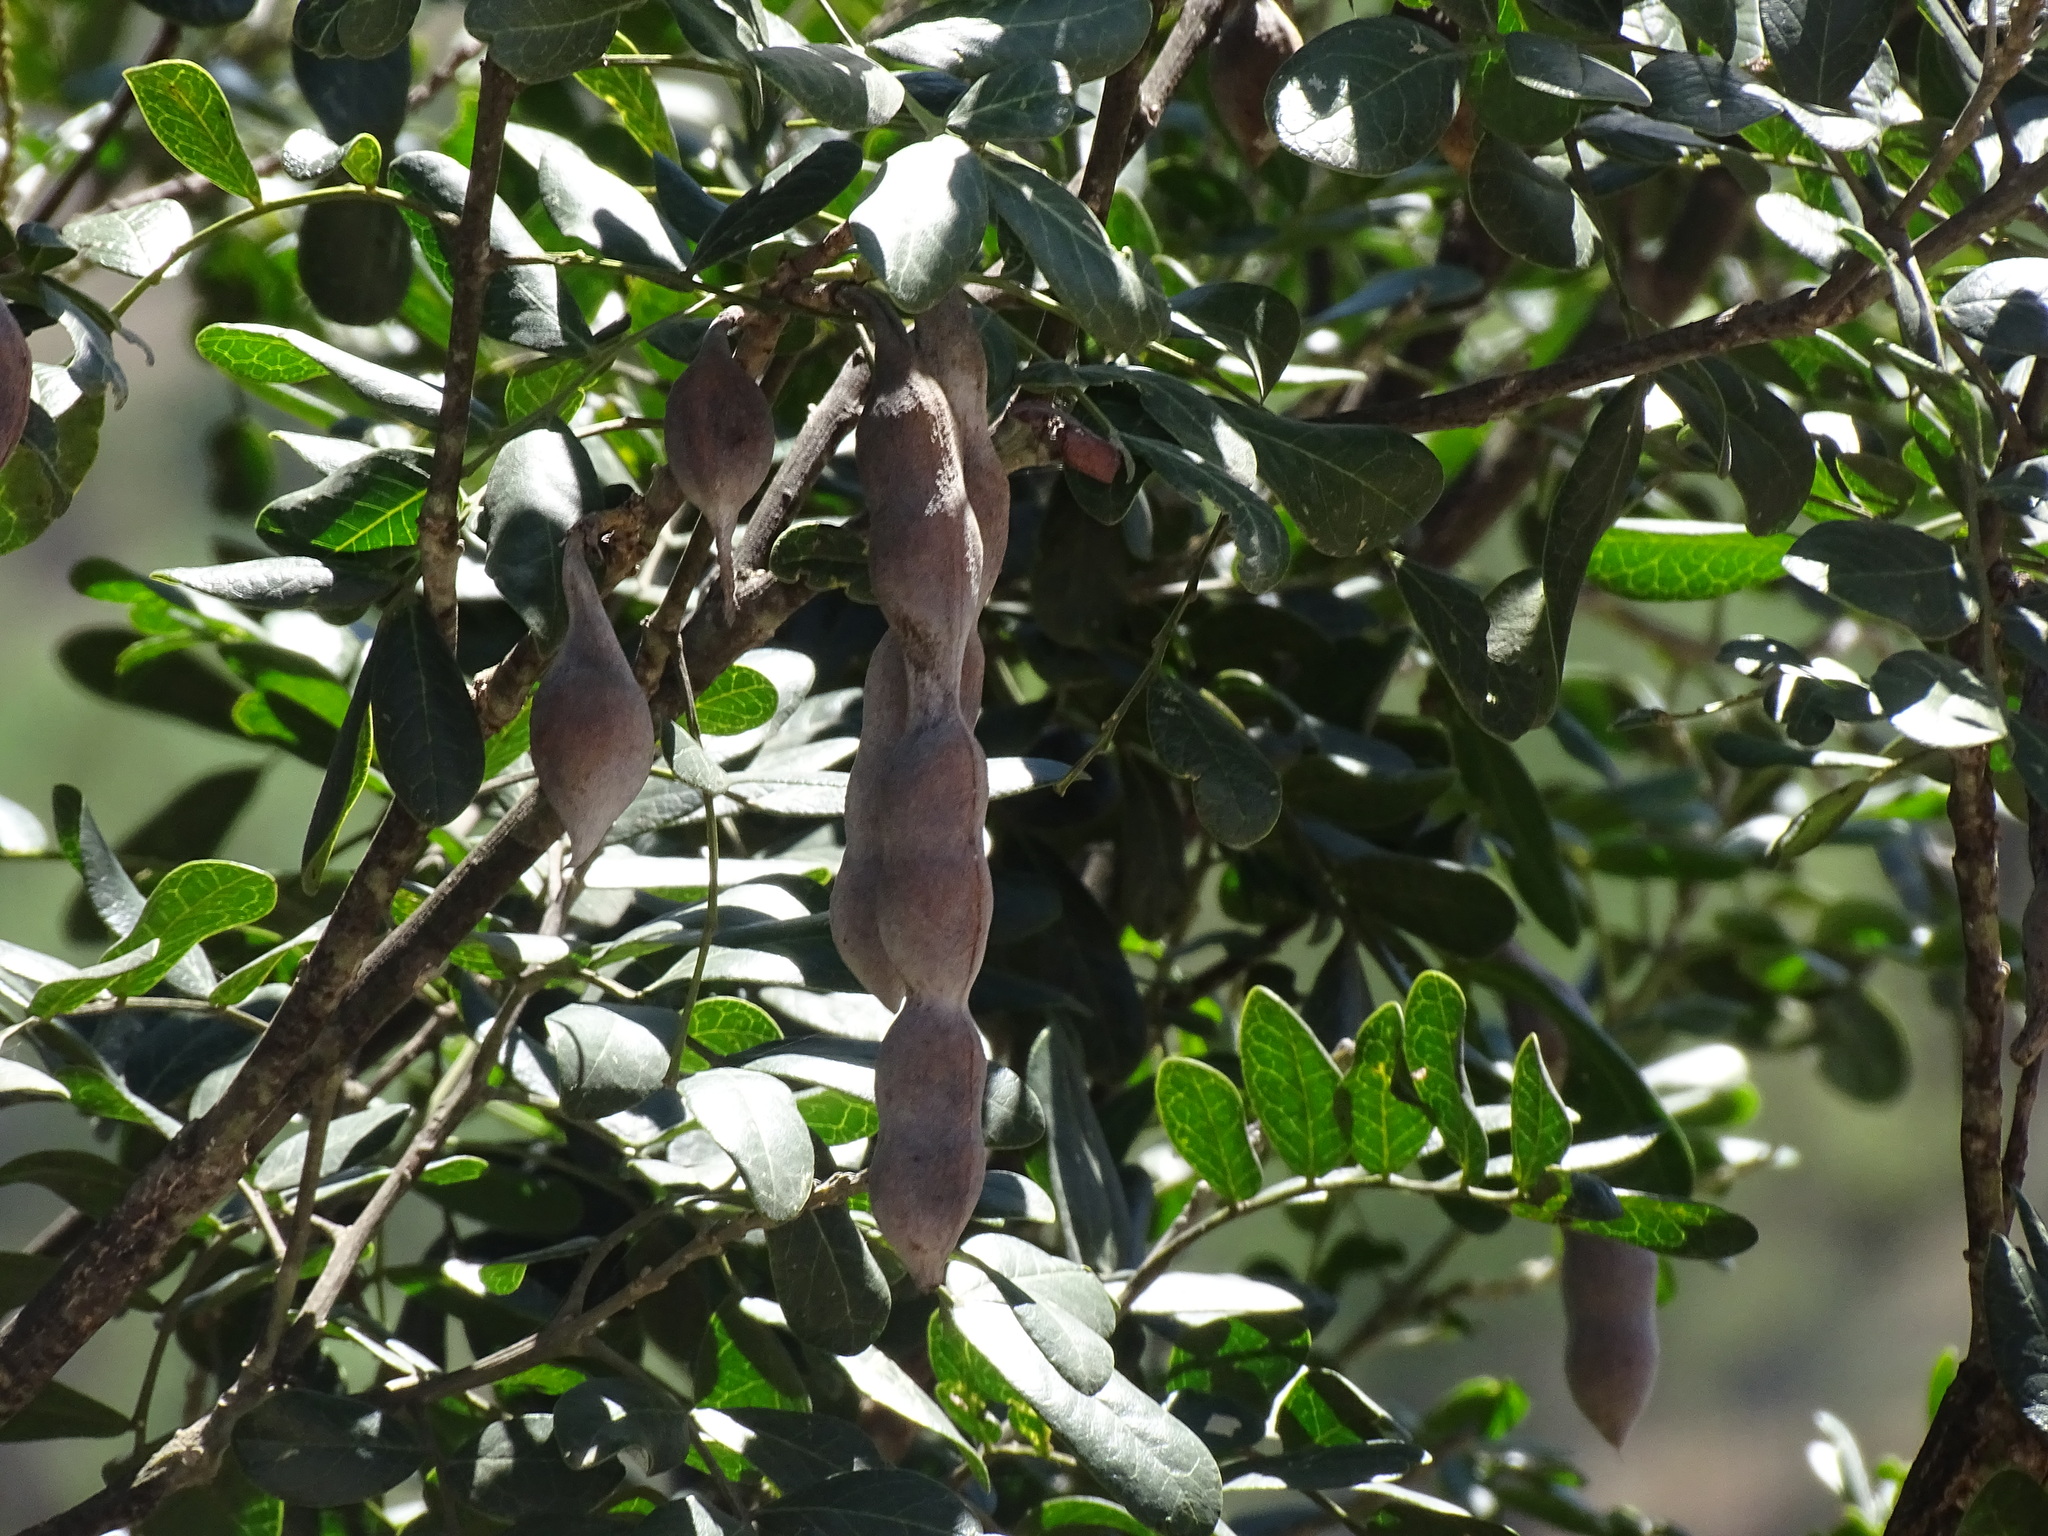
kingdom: Plantae
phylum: Tracheophyta
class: Magnoliopsida
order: Fabales
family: Fabaceae
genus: Dermatophyllum
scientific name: Dermatophyllum secundiflorum
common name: Texas-mountain-laurel
